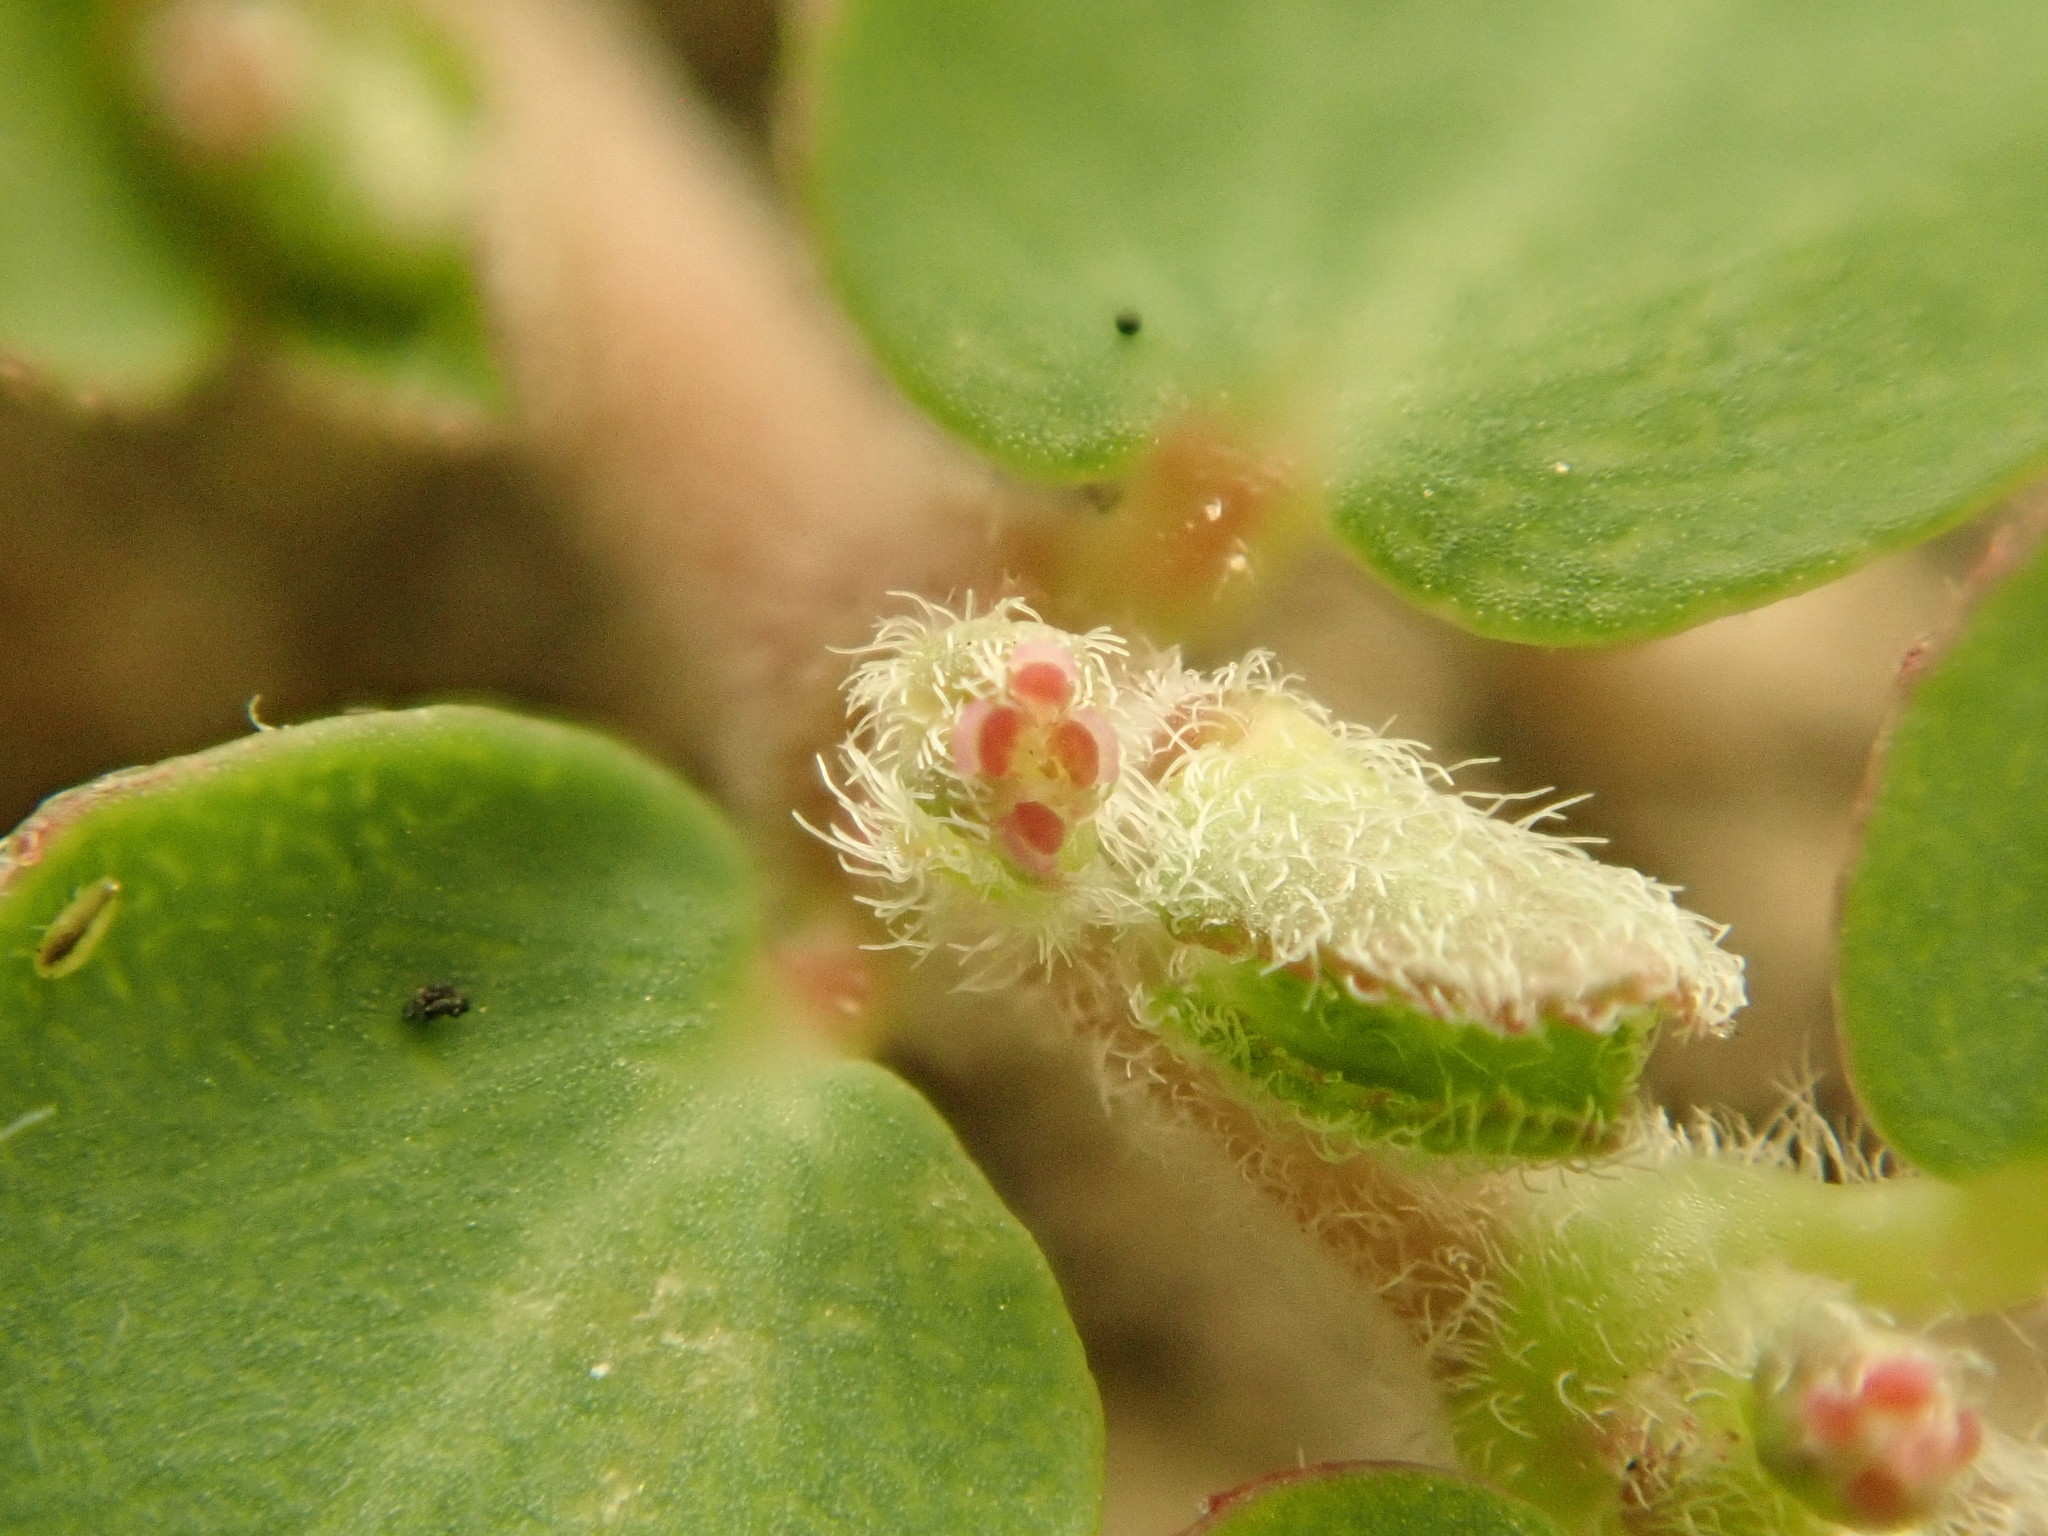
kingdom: Plantae
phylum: Tracheophyta
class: Magnoliopsida
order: Malpighiales
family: Euphorbiaceae
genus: Euphorbia
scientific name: Euphorbia prostrata
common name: Prostrate sandmat
